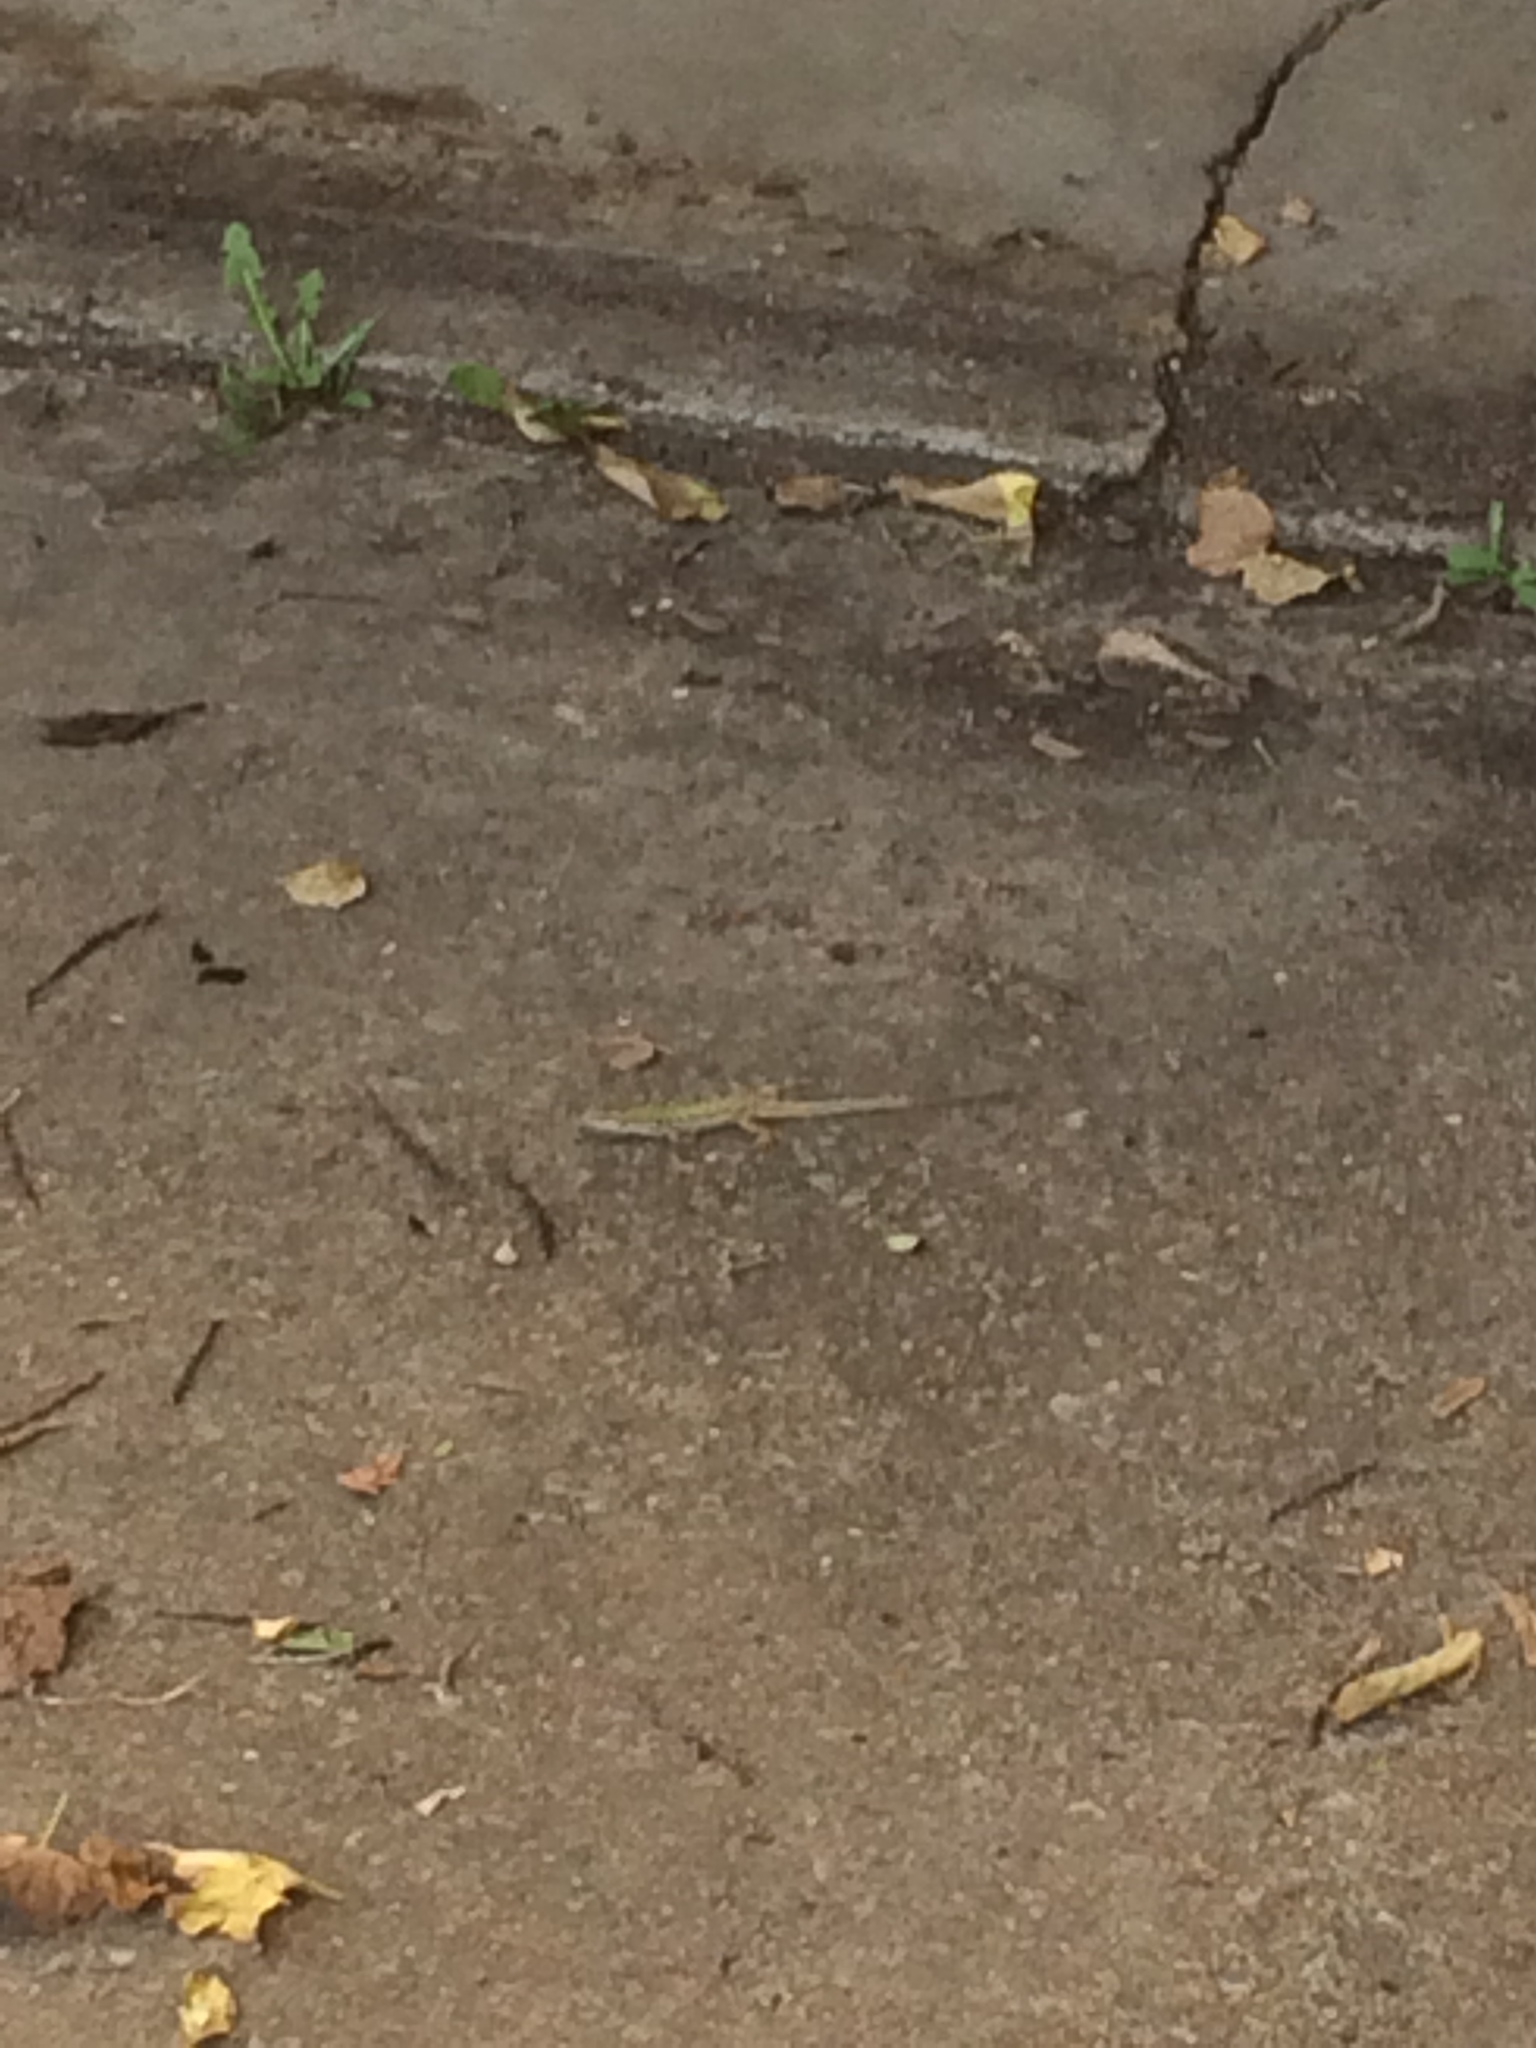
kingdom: Animalia
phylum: Chordata
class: Squamata
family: Lacertidae
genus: Podarcis
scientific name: Podarcis siculus
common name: Italian wall lizard
